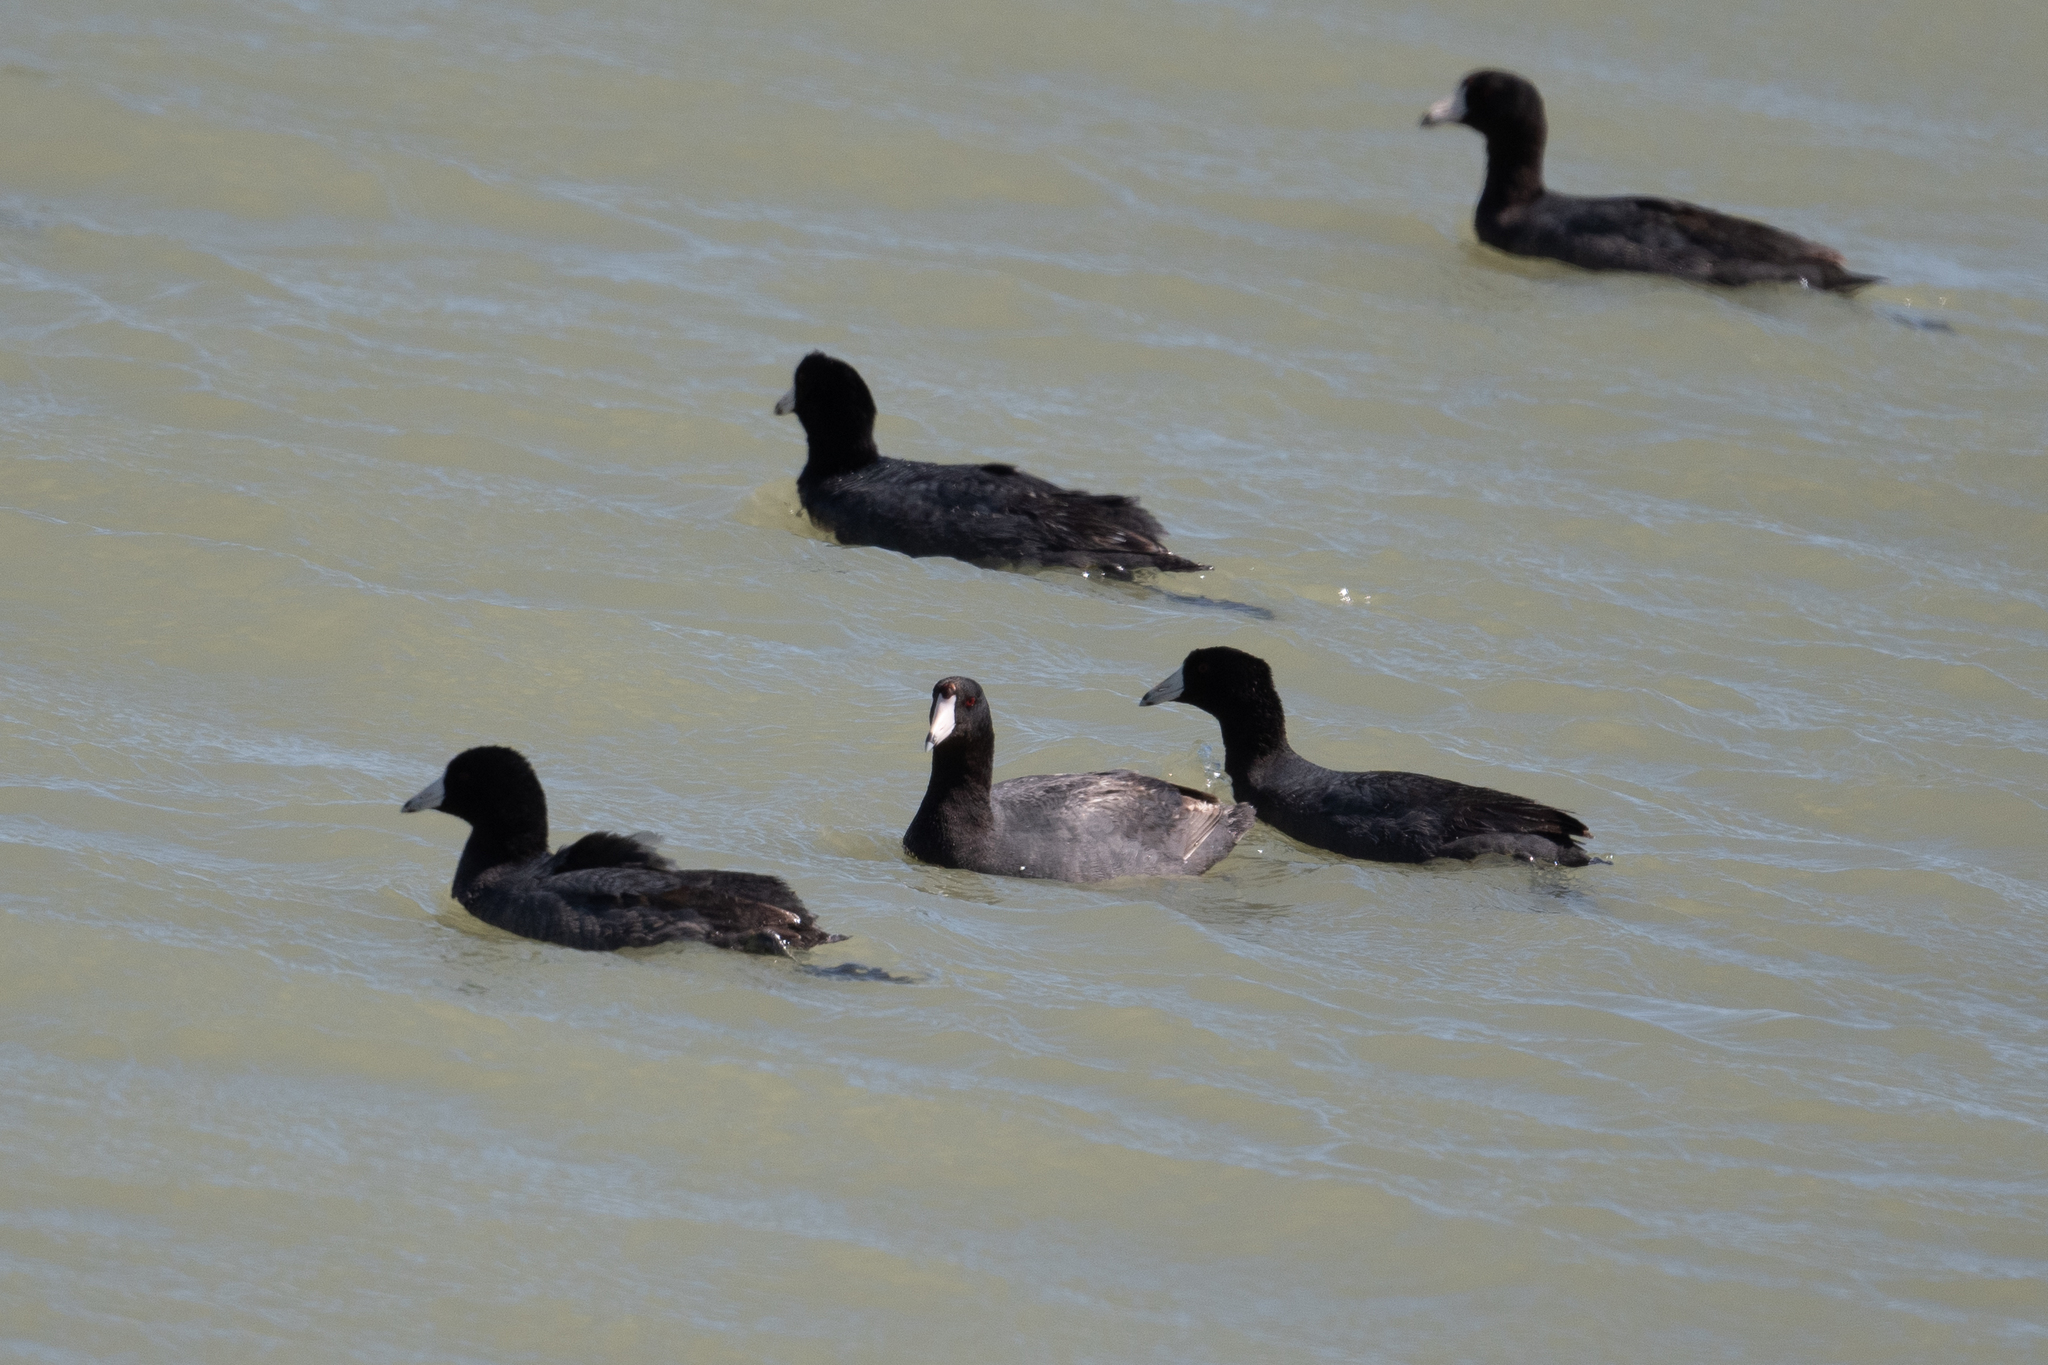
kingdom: Animalia
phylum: Chordata
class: Aves
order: Gruiformes
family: Rallidae
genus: Fulica
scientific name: Fulica americana
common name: American coot
